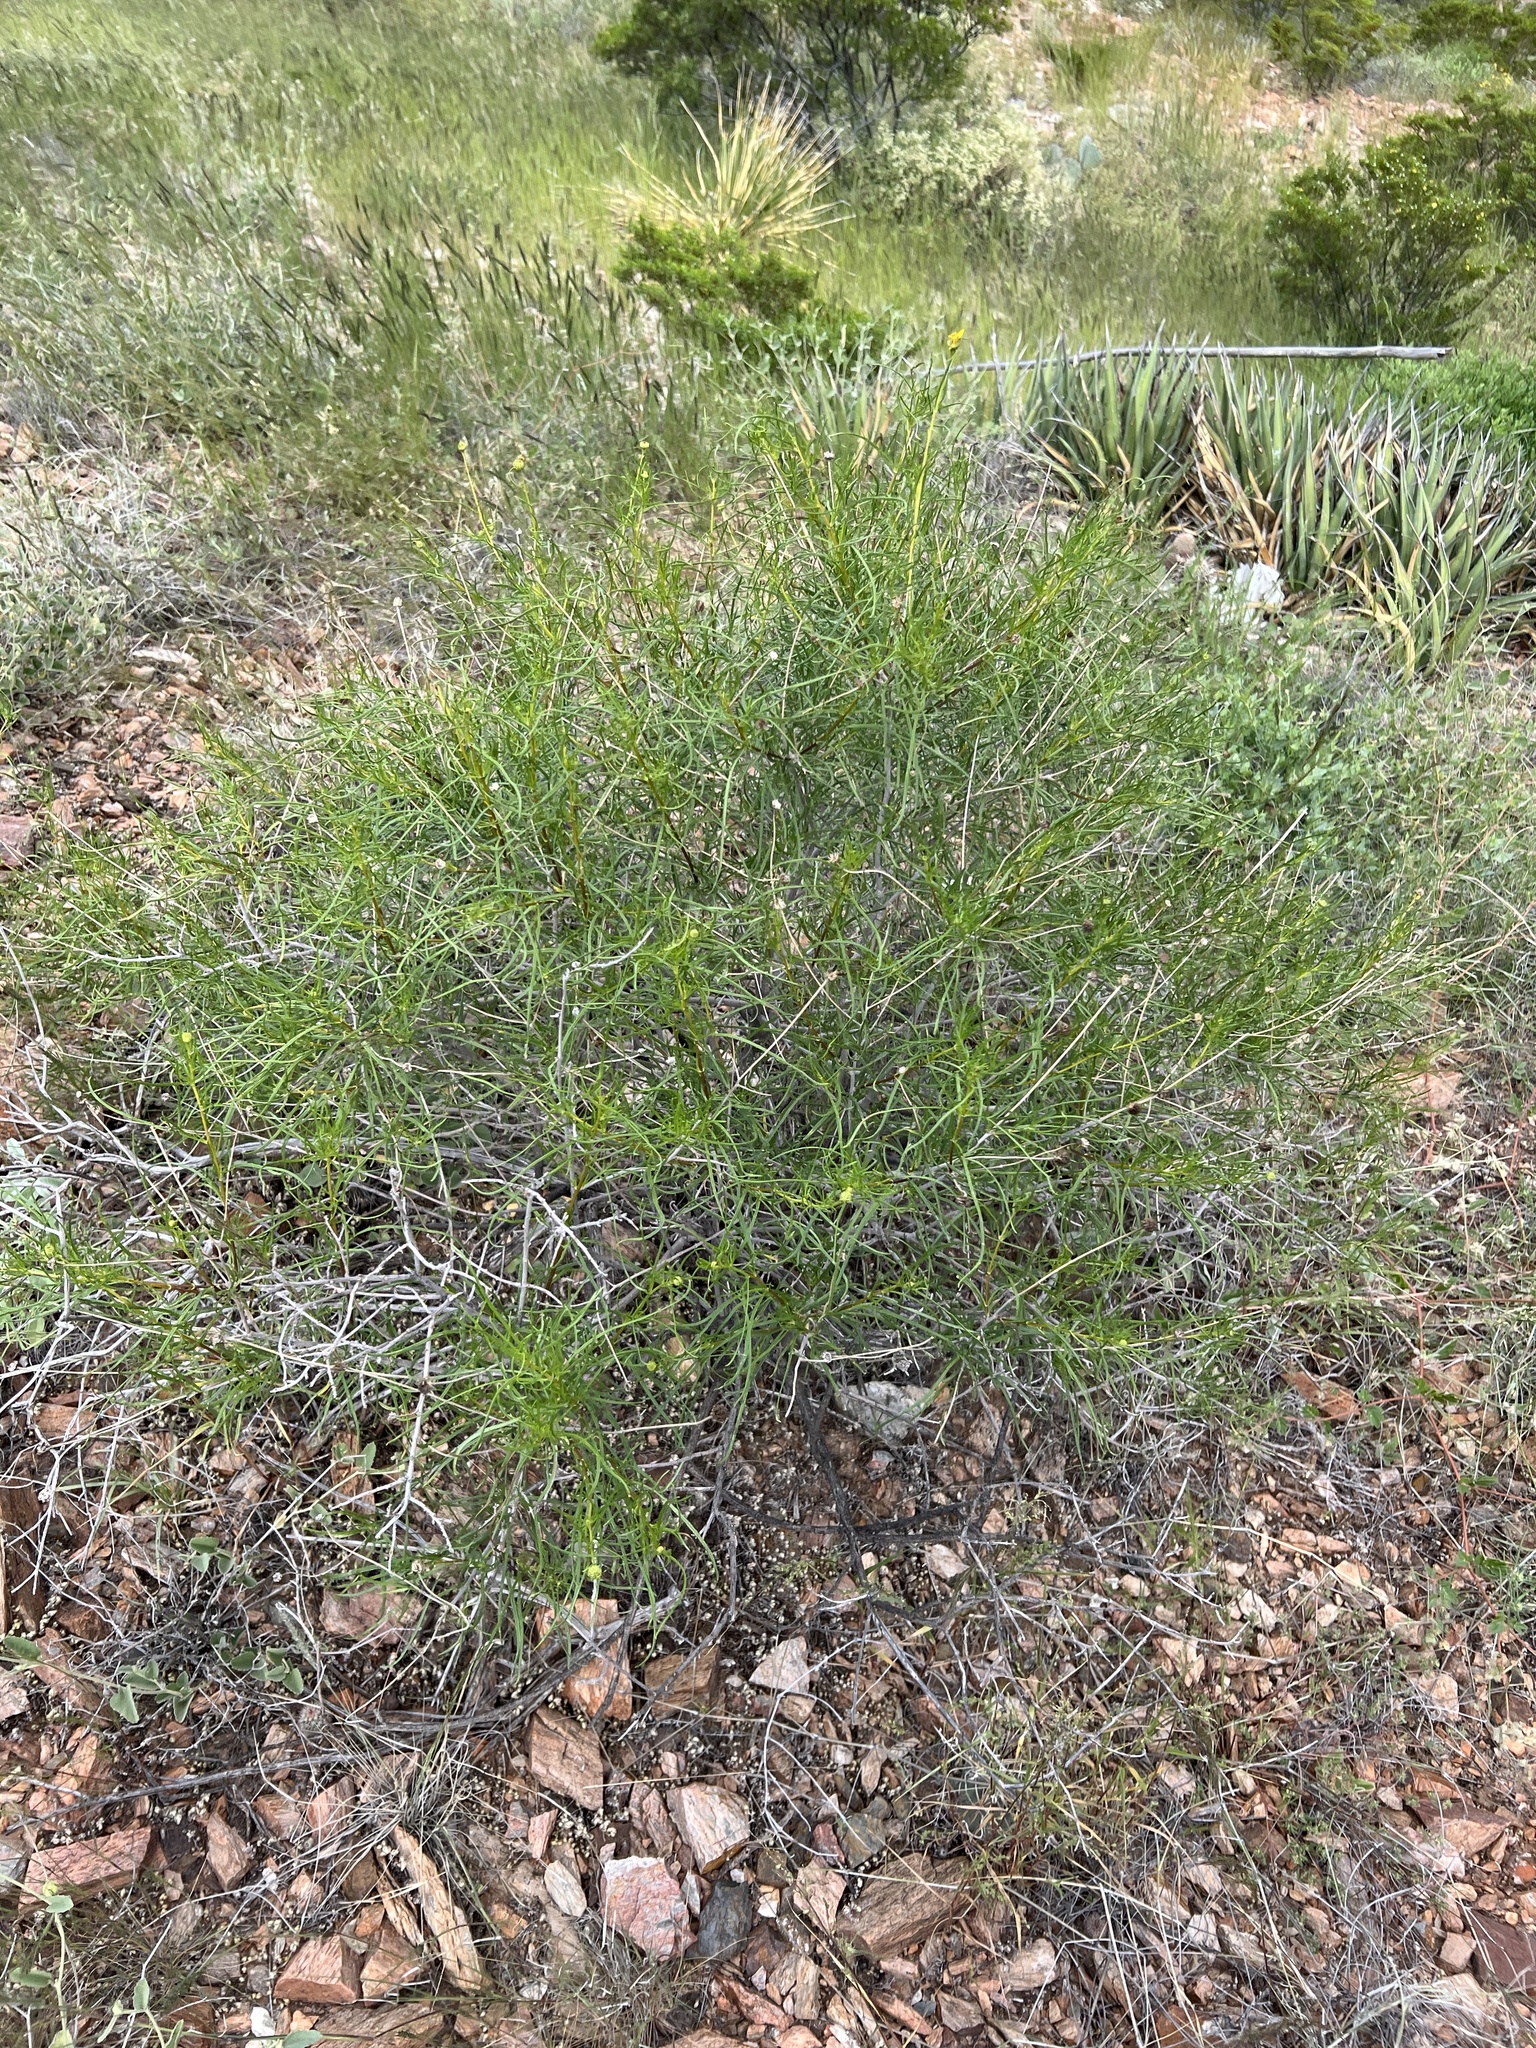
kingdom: Plantae
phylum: Tracheophyta
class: Magnoliopsida
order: Asterales
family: Asteraceae
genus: Sidneya
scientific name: Sidneya tenuifolia
